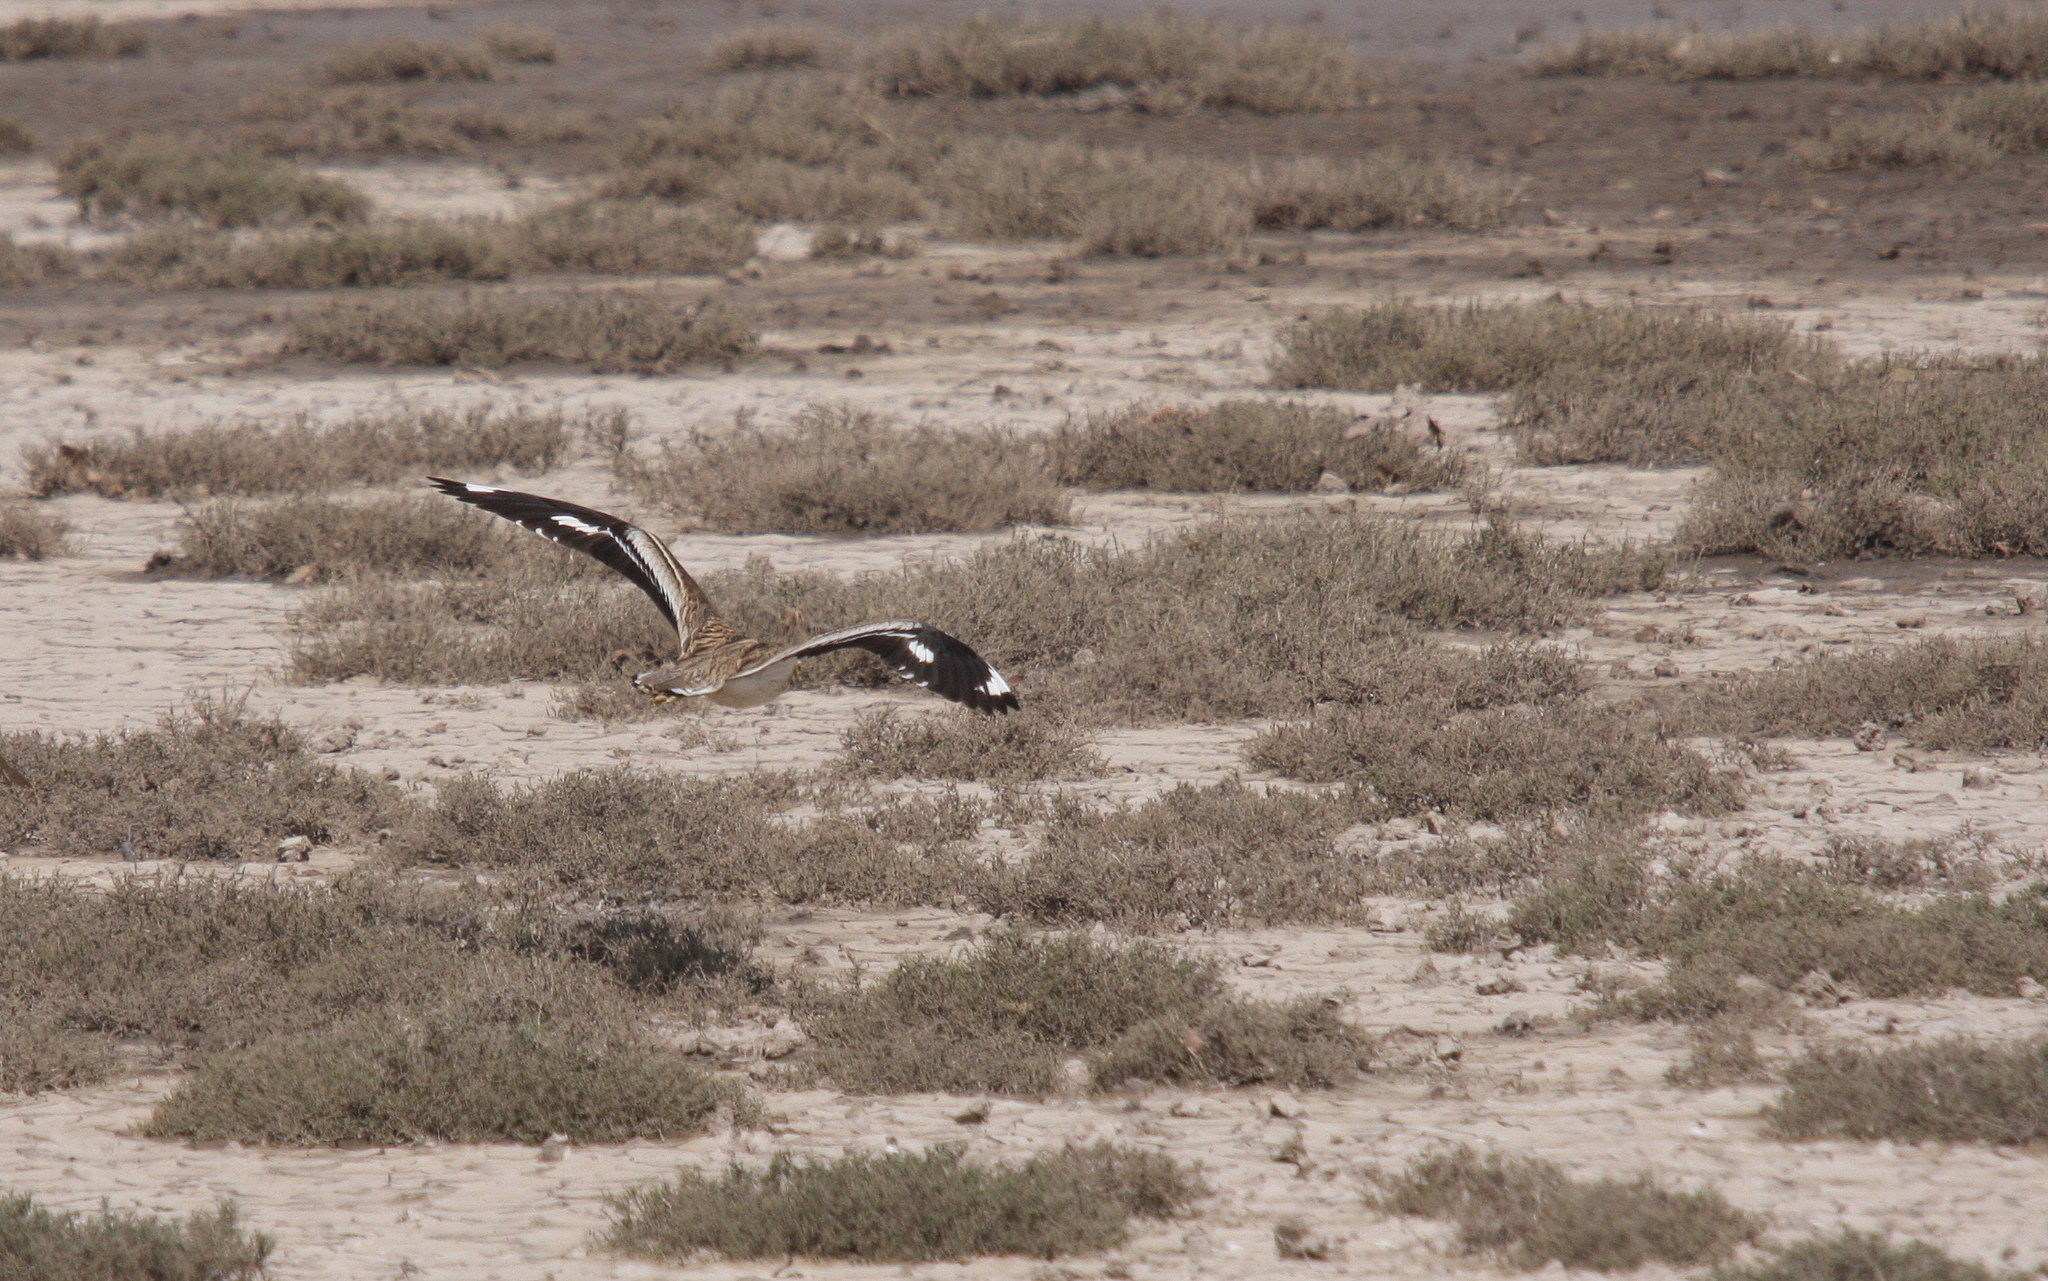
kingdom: Animalia
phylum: Chordata
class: Aves
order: Charadriiformes
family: Burhinidae
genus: Burhinus
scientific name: Burhinus oedicnemus
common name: Eurasian stone-curlew
